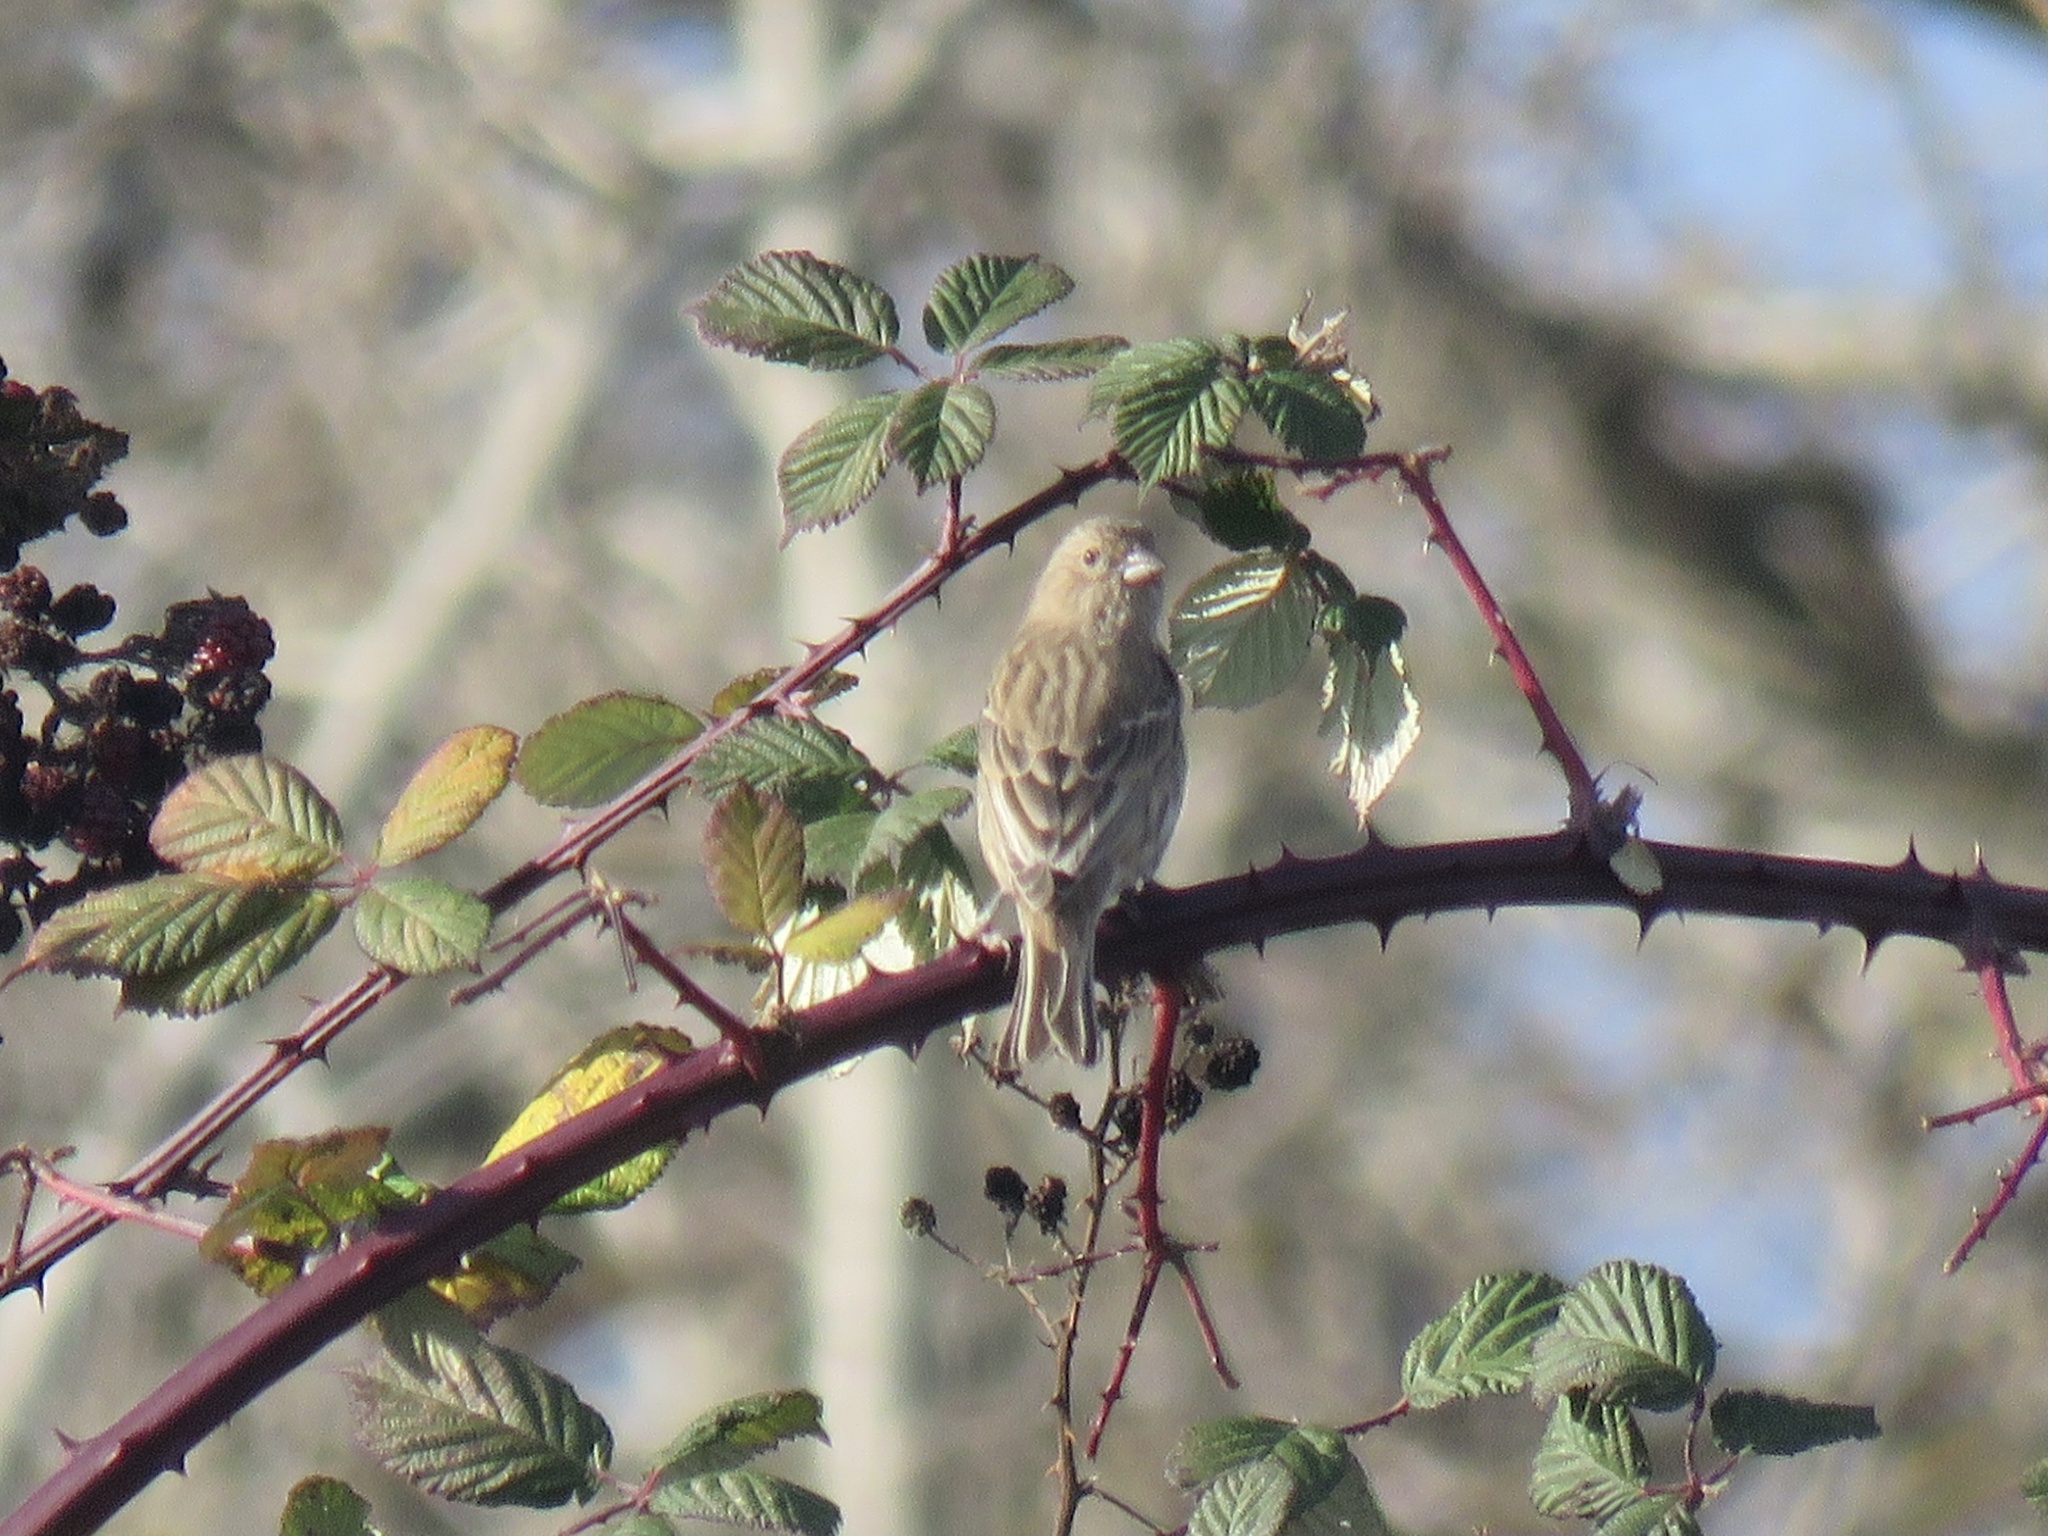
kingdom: Animalia
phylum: Chordata
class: Aves
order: Passeriformes
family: Fringillidae
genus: Haemorhous
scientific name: Haemorhous mexicanus
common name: House finch
